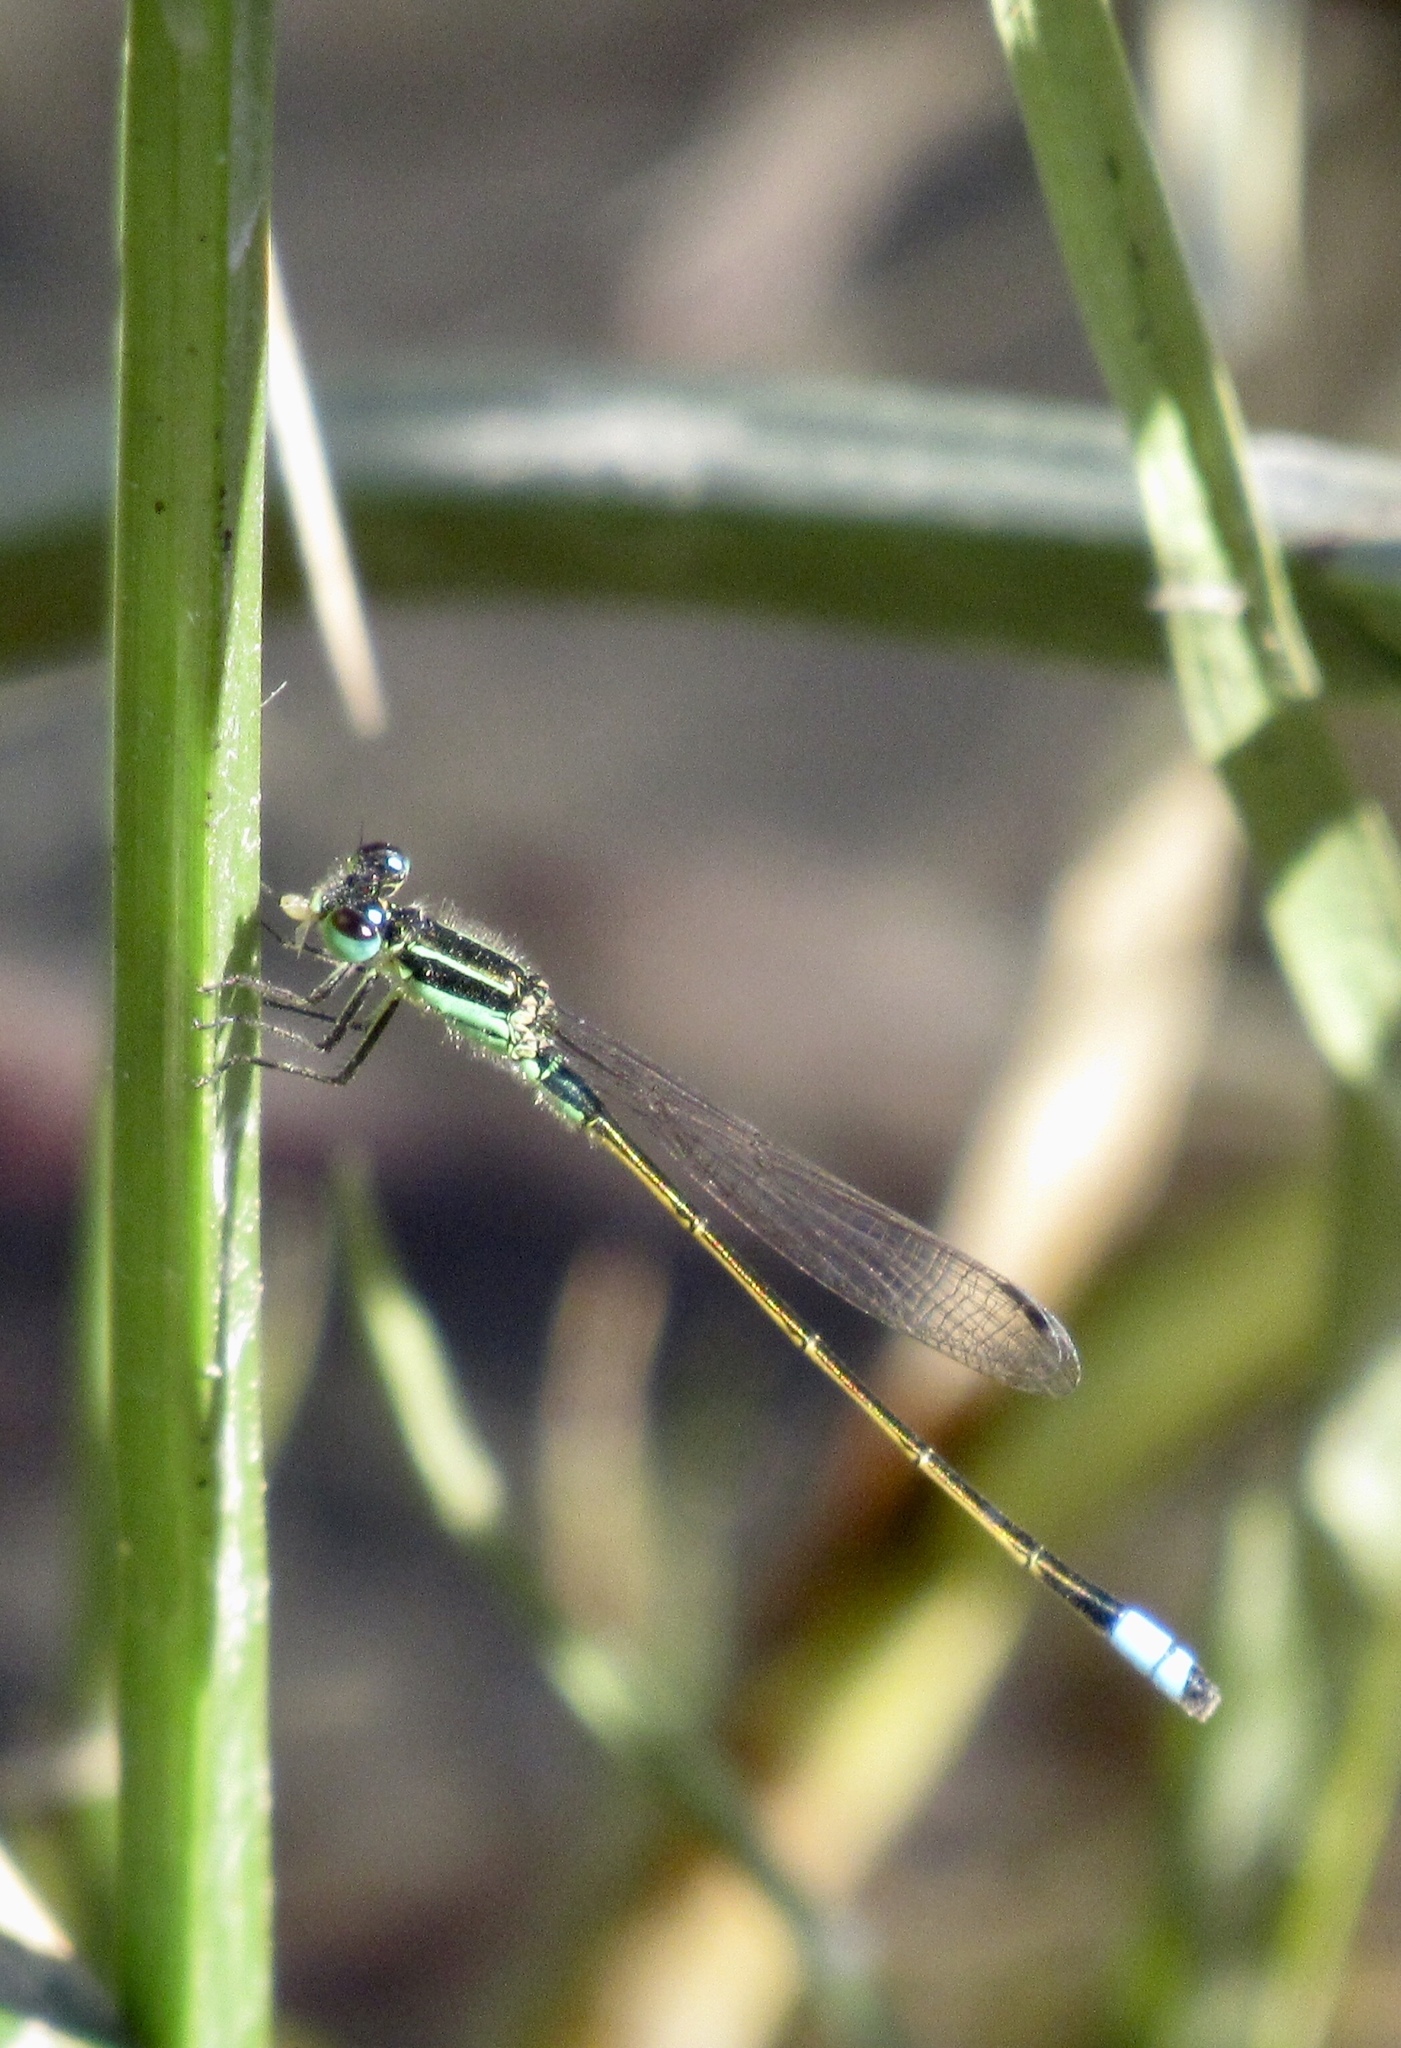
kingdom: Animalia
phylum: Arthropoda
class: Insecta
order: Odonata
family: Coenagrionidae
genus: Ischnura
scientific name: Ischnura ramburii
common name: Rambur's forktail
